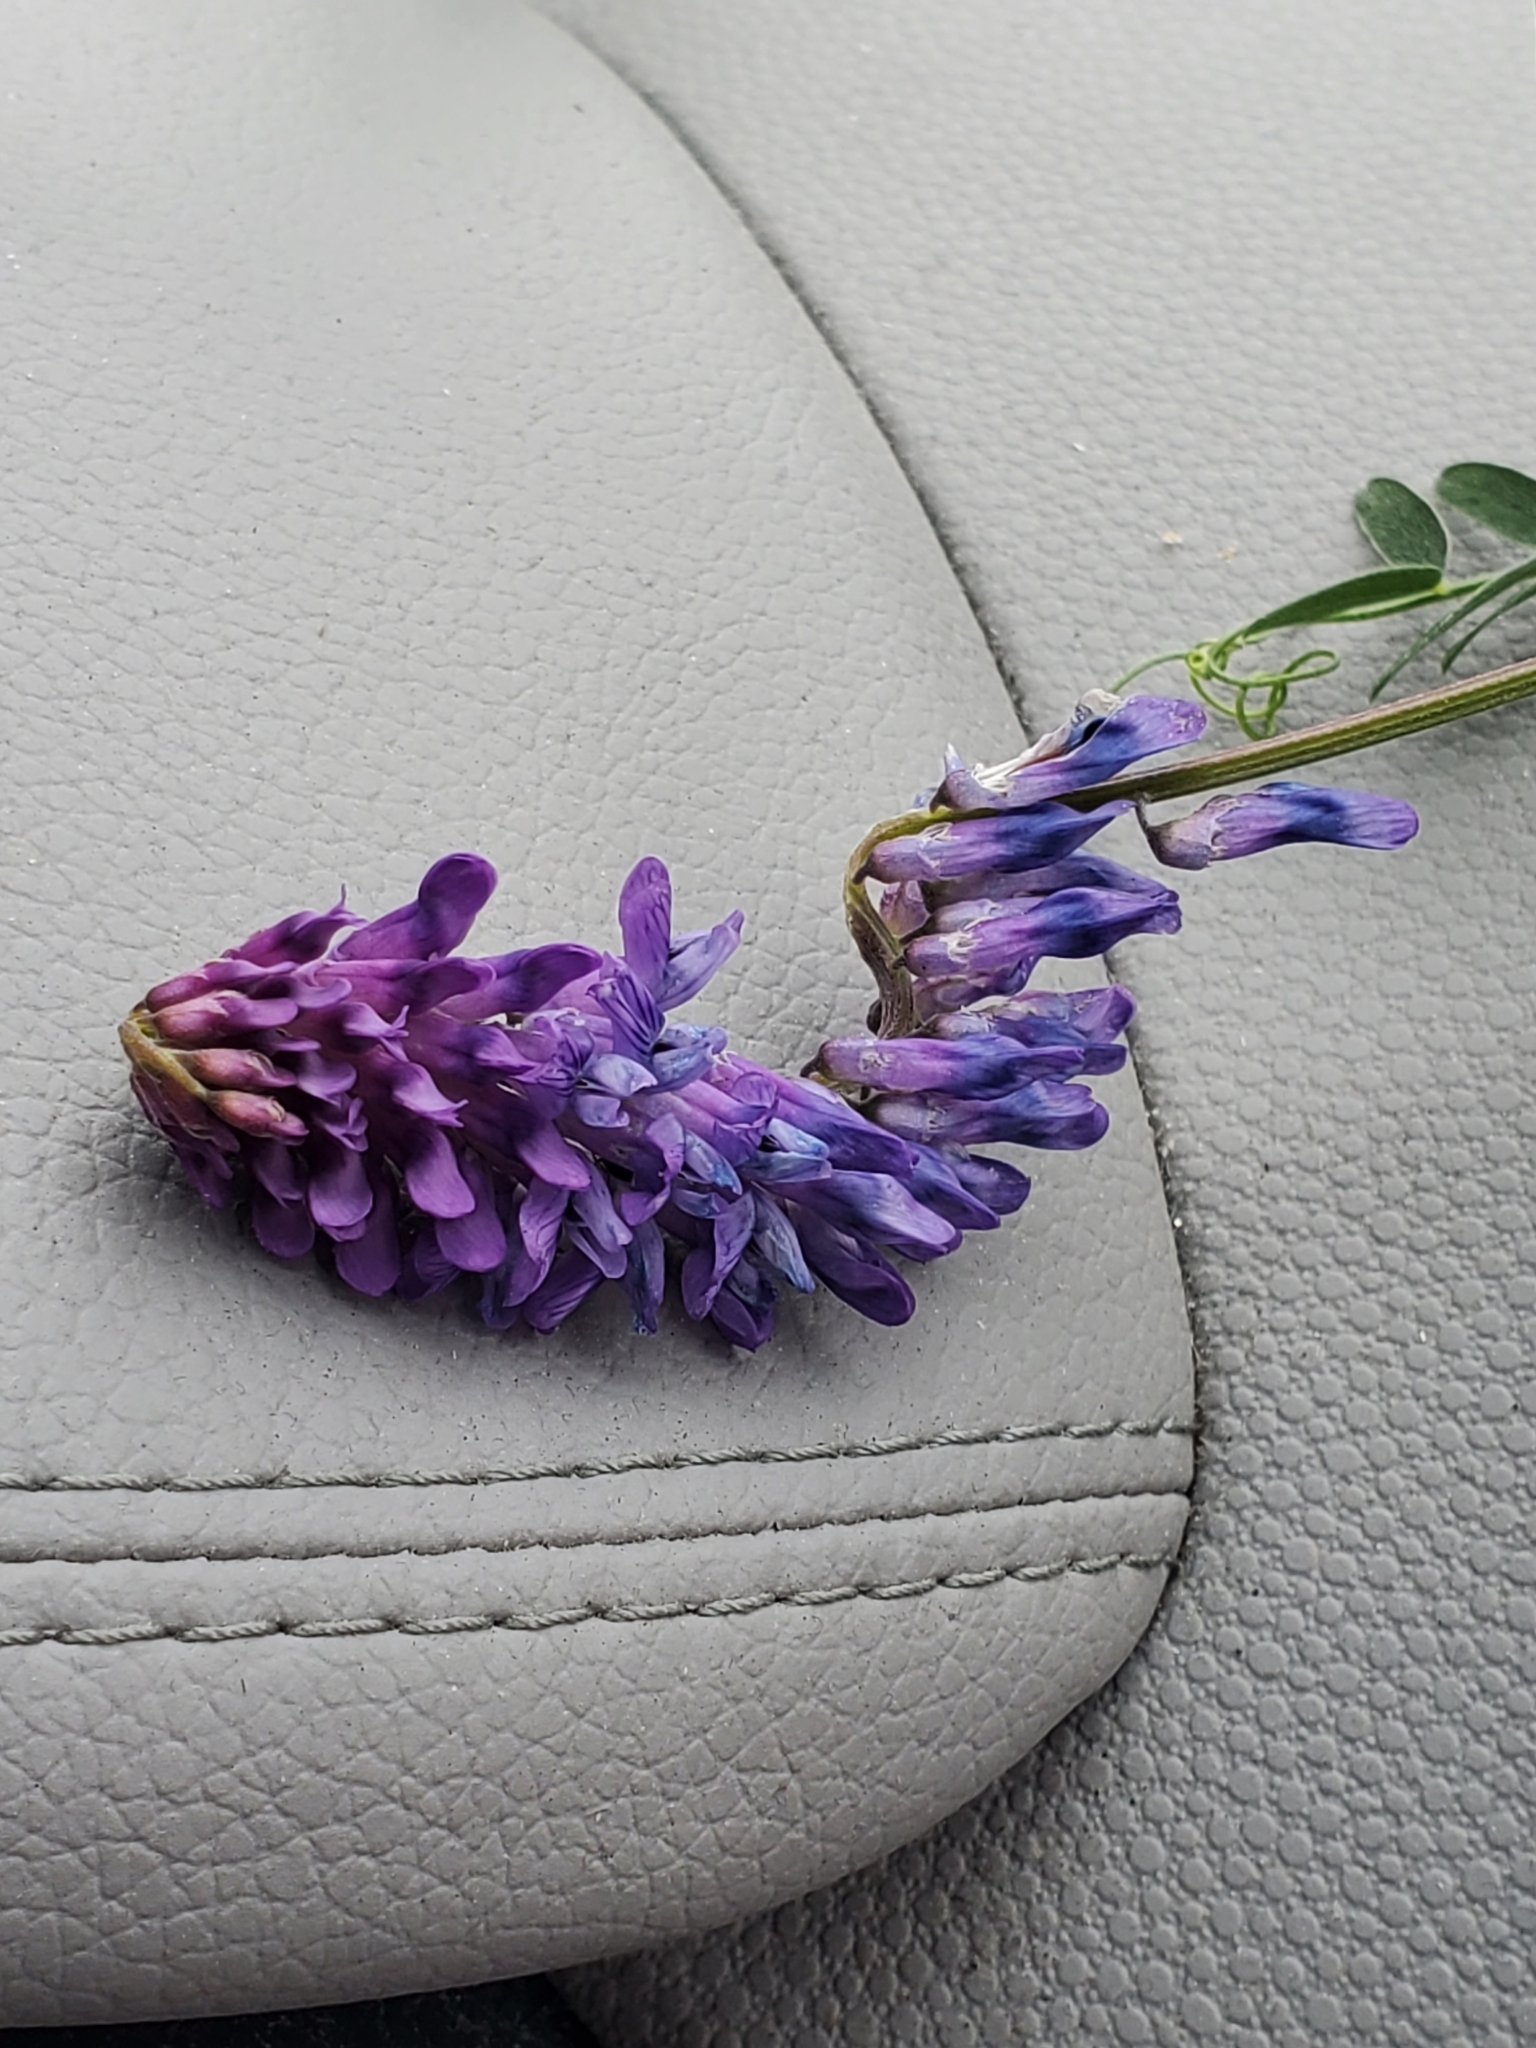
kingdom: Plantae
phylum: Tracheophyta
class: Magnoliopsida
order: Fabales
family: Fabaceae
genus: Vicia
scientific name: Vicia cracca
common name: Bird vetch
